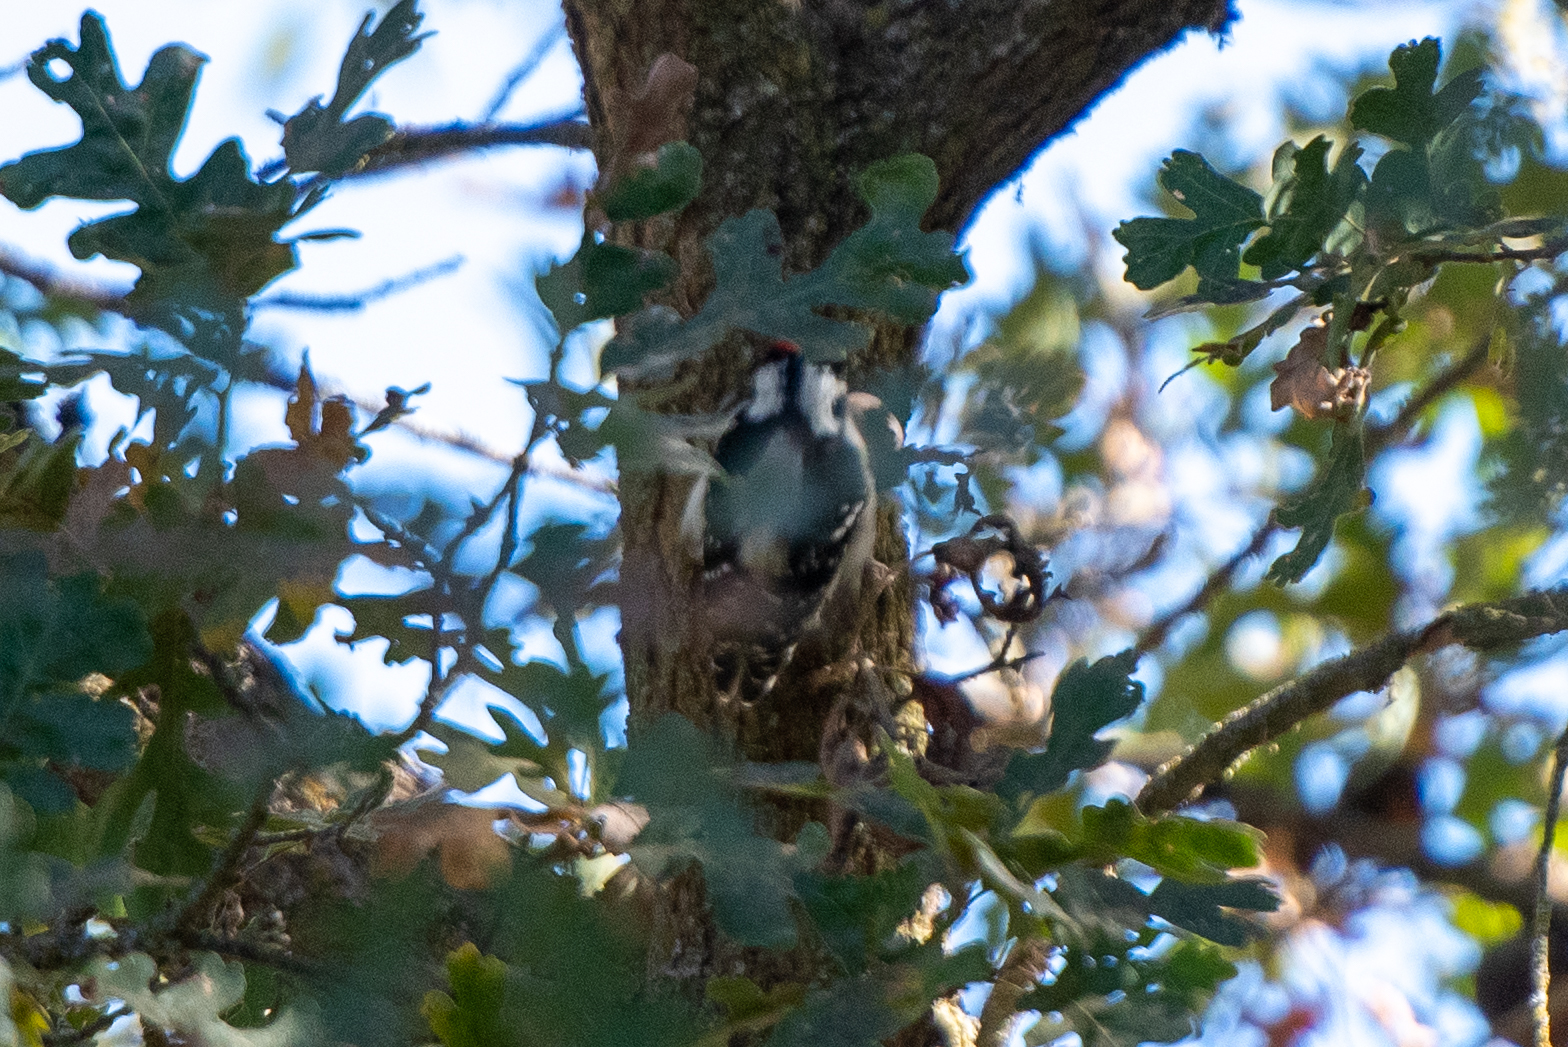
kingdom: Animalia
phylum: Chordata
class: Aves
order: Piciformes
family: Picidae
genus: Dryobates
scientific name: Dryobates pubescens
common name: Downy woodpecker
